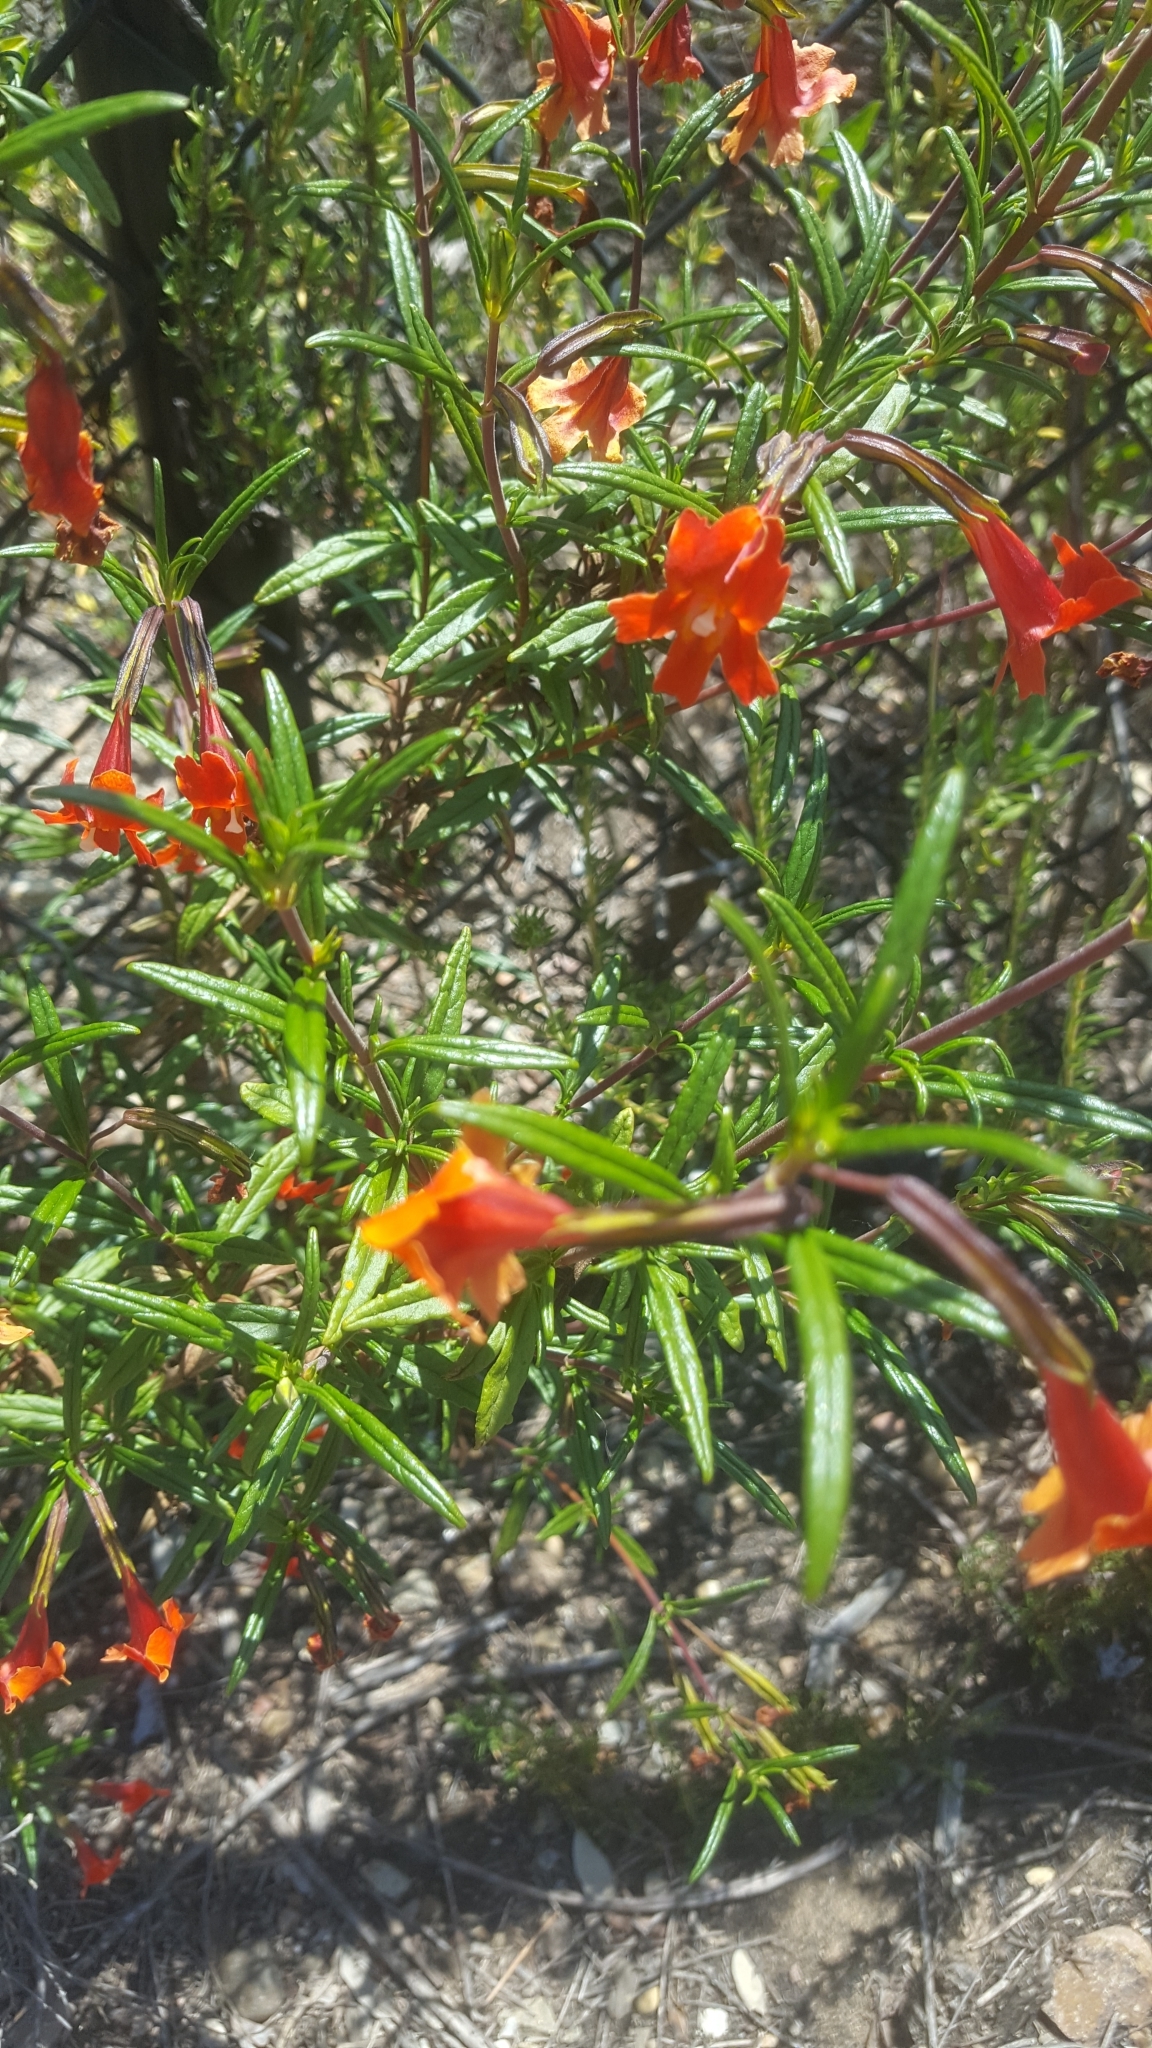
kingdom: Plantae
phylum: Tracheophyta
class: Magnoliopsida
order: Lamiales
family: Phrymaceae
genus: Diplacus
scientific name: Diplacus puniceus
